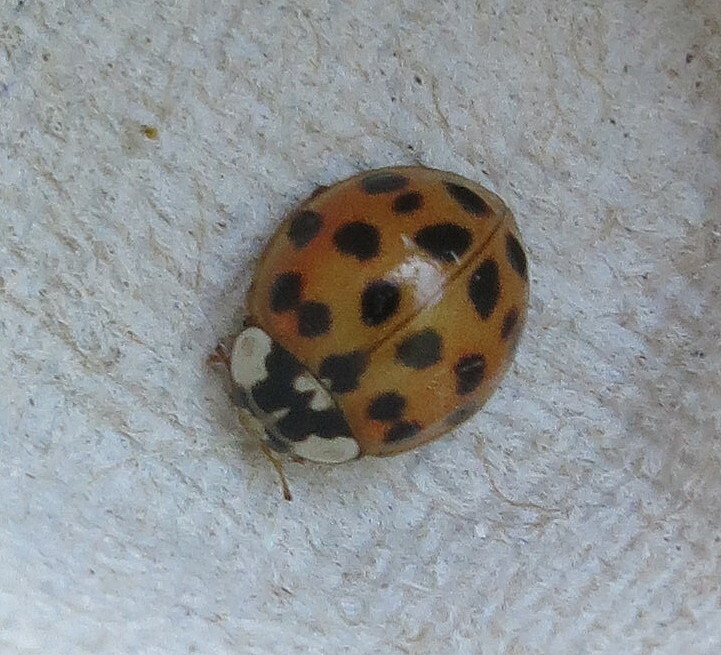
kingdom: Animalia
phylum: Arthropoda
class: Insecta
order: Coleoptera
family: Coccinellidae
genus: Harmonia
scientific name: Harmonia axyridis
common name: Harlequin ladybird
